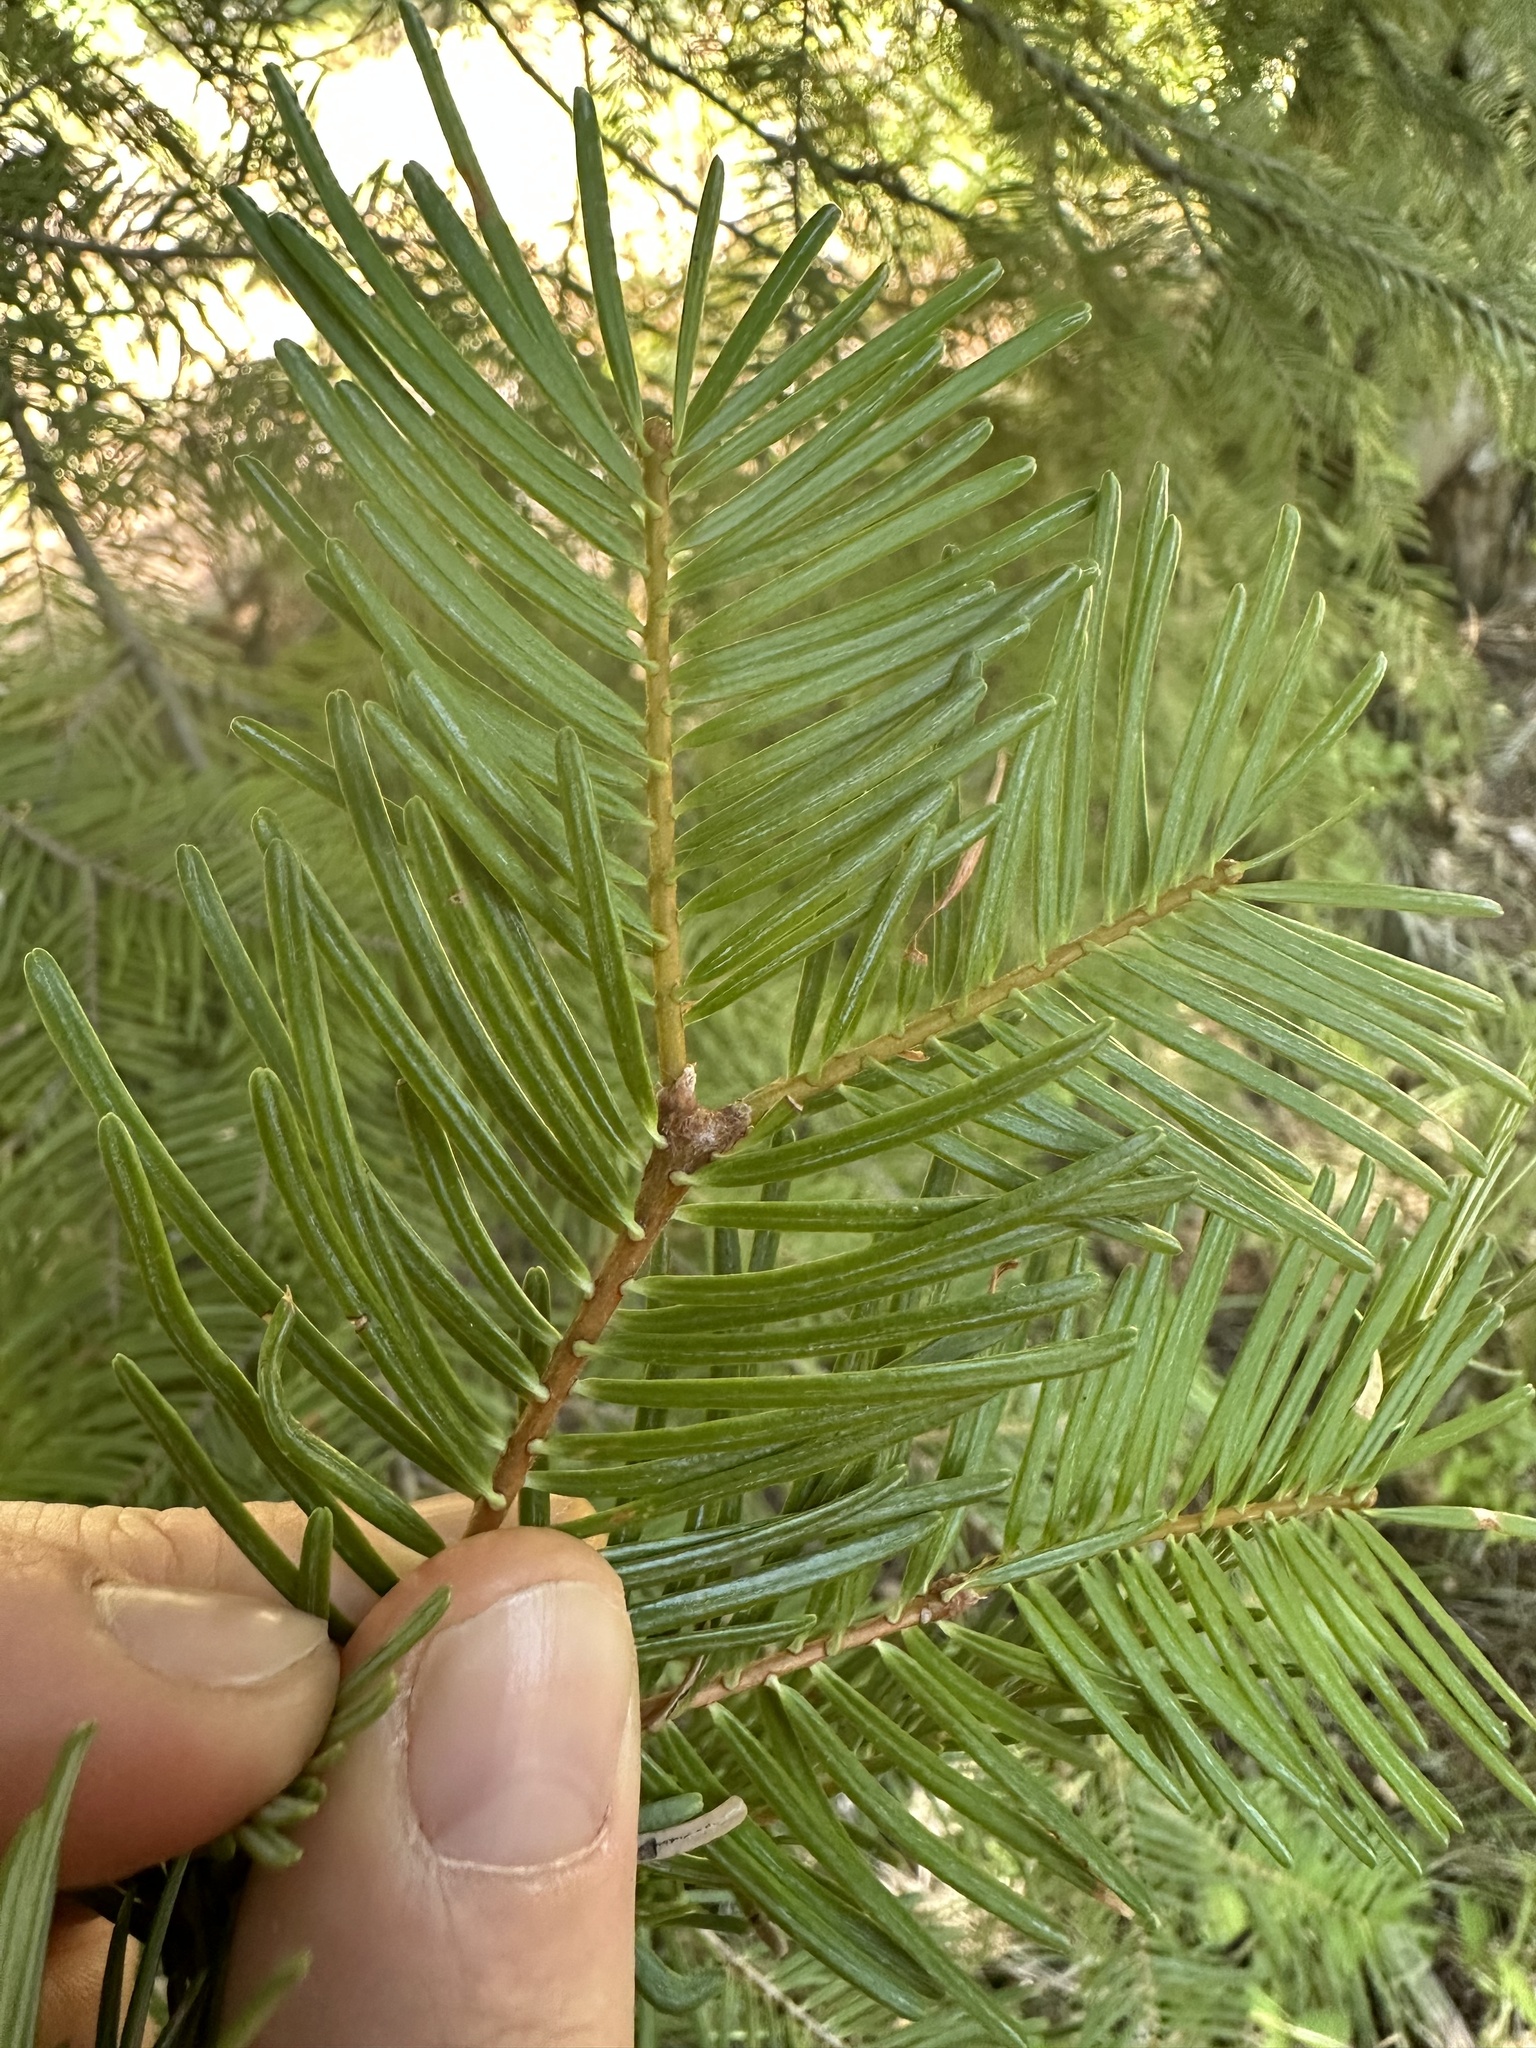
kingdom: Plantae
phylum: Tracheophyta
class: Pinopsida
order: Pinales
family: Pinaceae
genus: Abies
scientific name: Abies concolor
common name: Colorado fir
